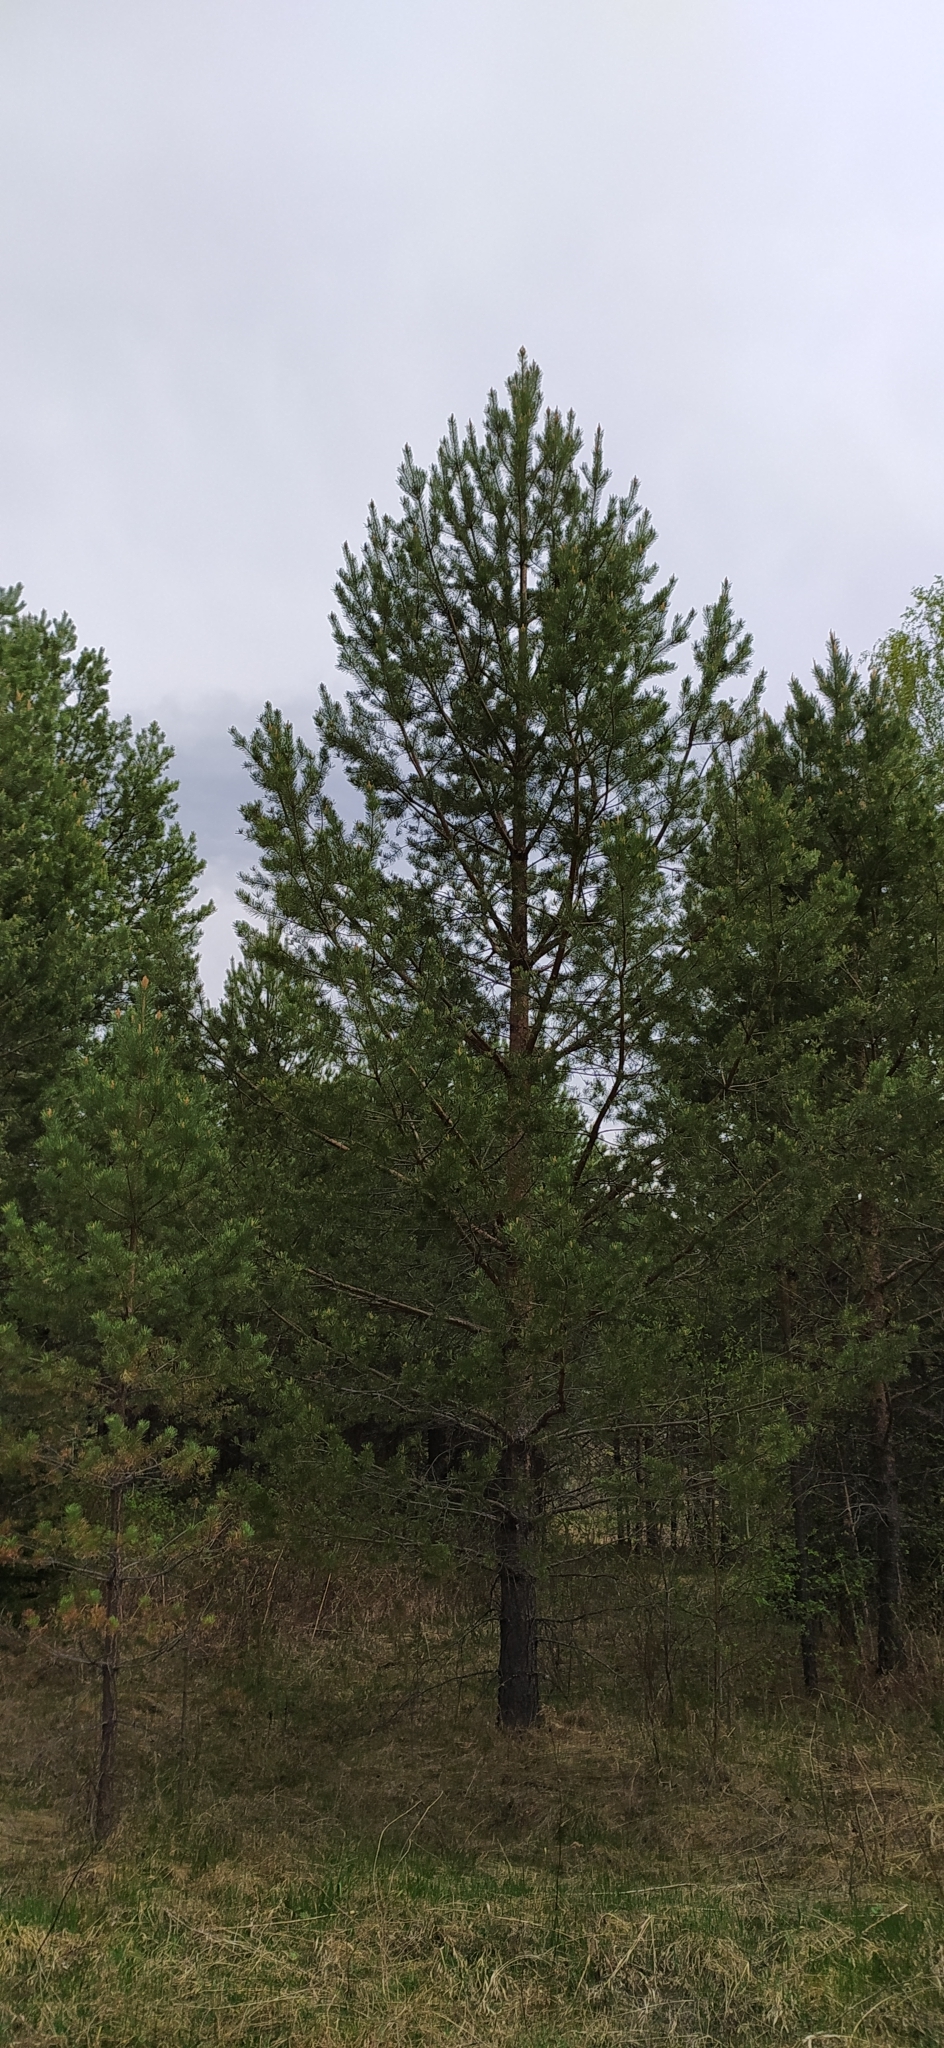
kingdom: Plantae
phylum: Tracheophyta
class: Pinopsida
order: Pinales
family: Pinaceae
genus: Pinus
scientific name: Pinus sylvestris
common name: Scots pine
